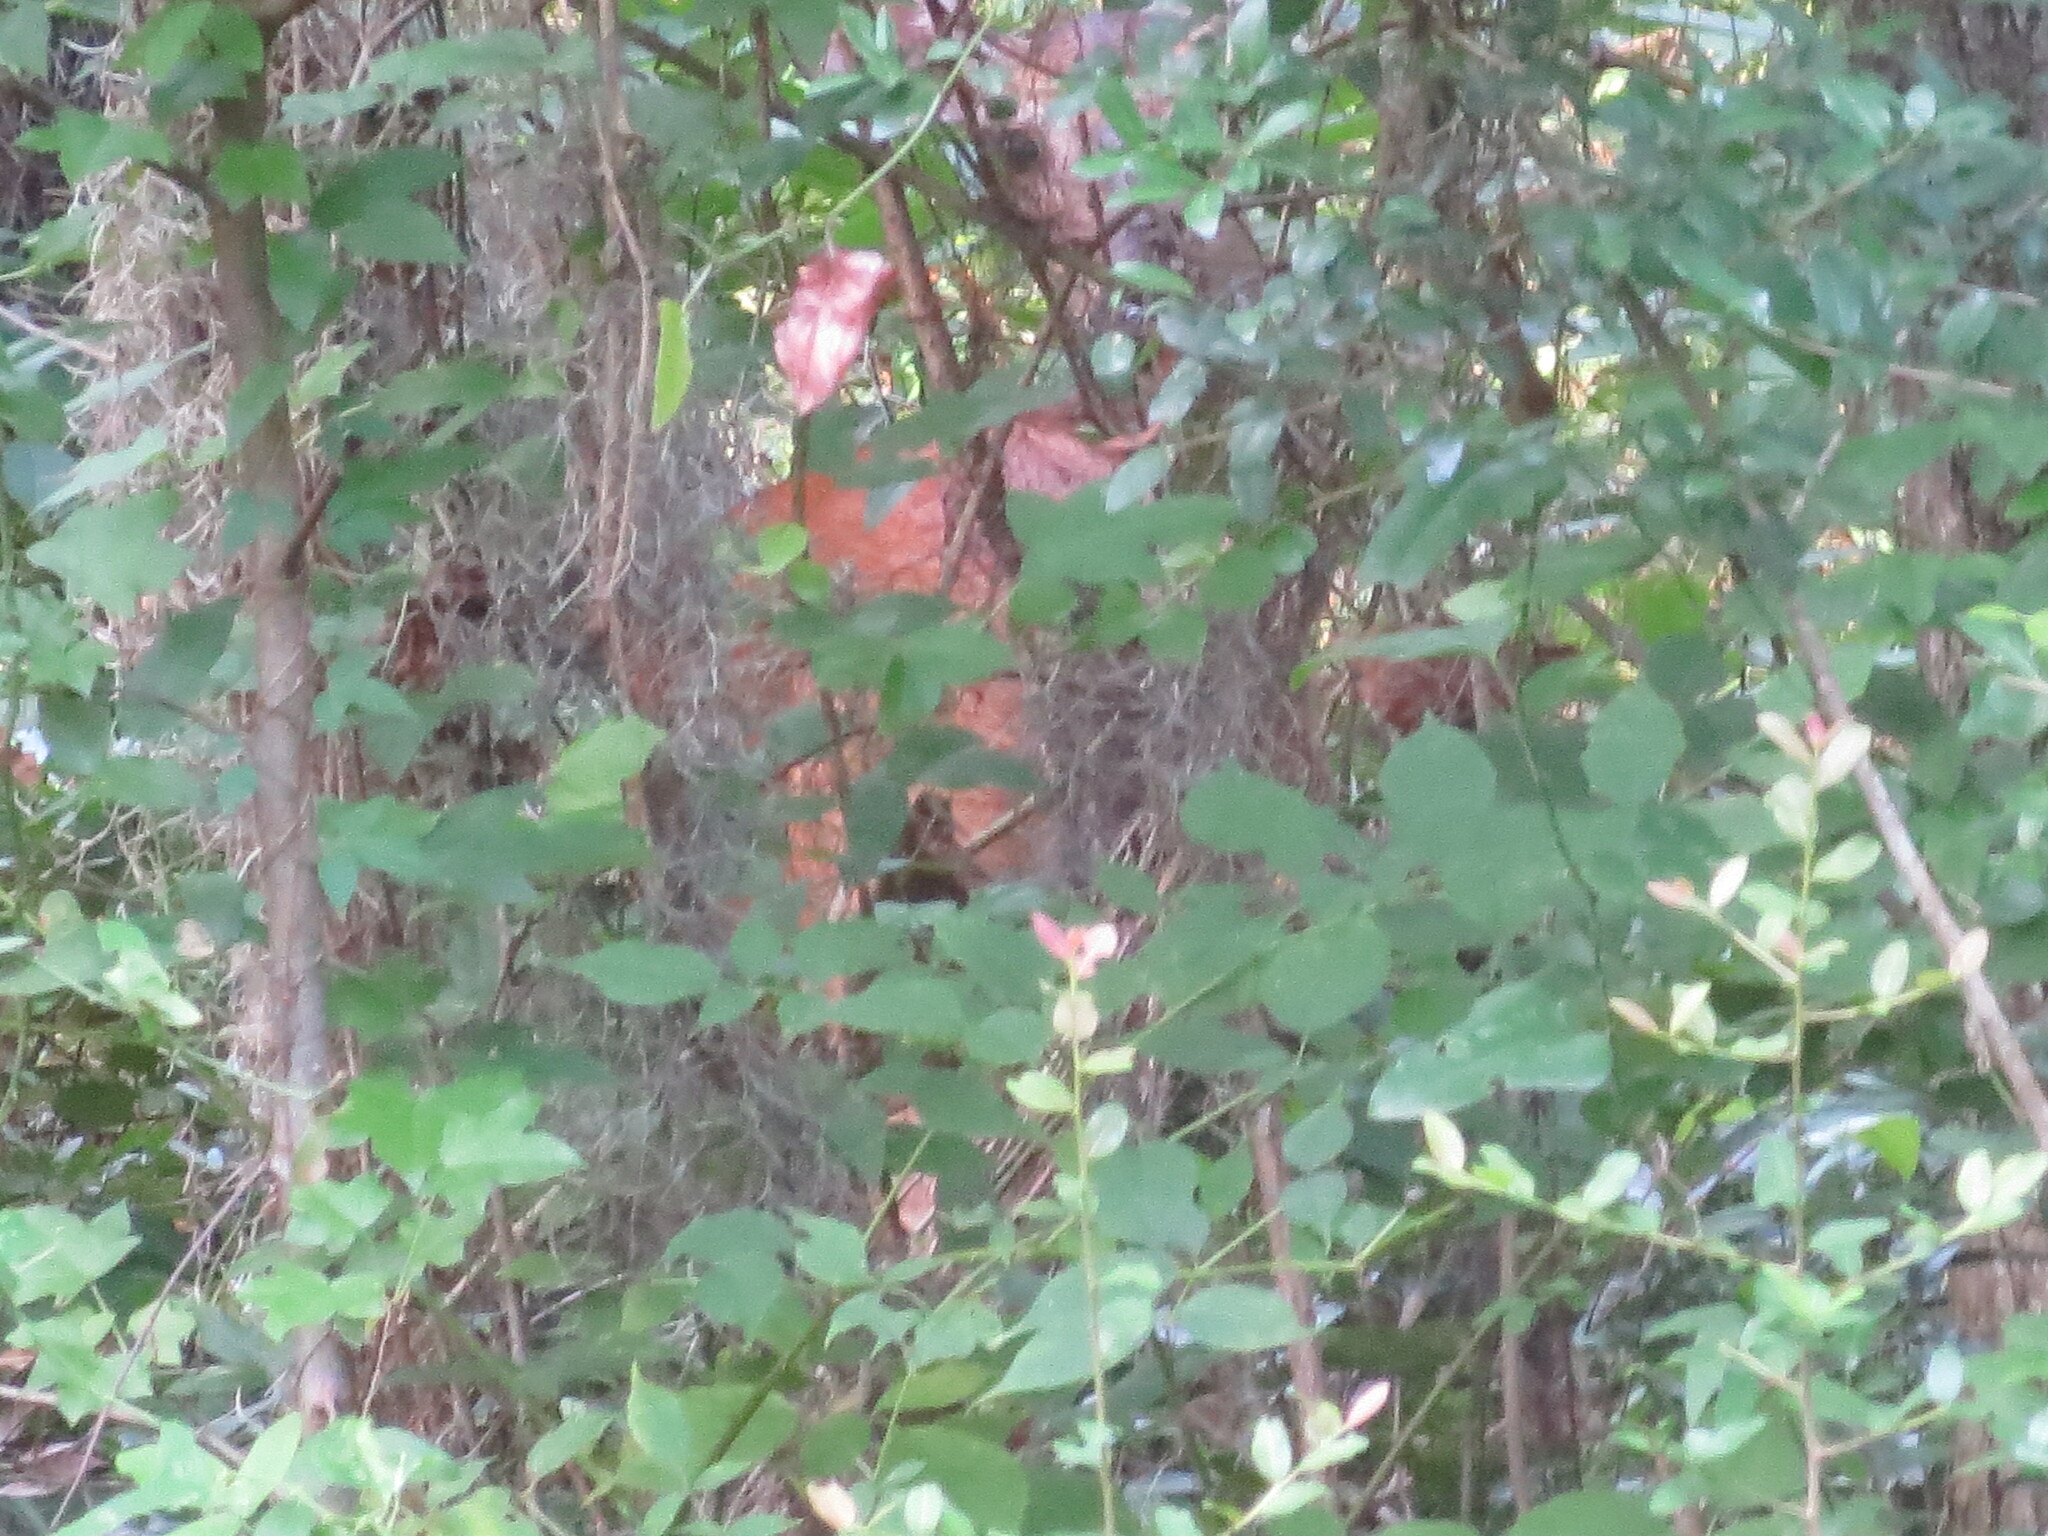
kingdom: Animalia
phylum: Chordata
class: Mammalia
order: Artiodactyla
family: Cervidae
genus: Odocoileus
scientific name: Odocoileus virginianus
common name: White-tailed deer
